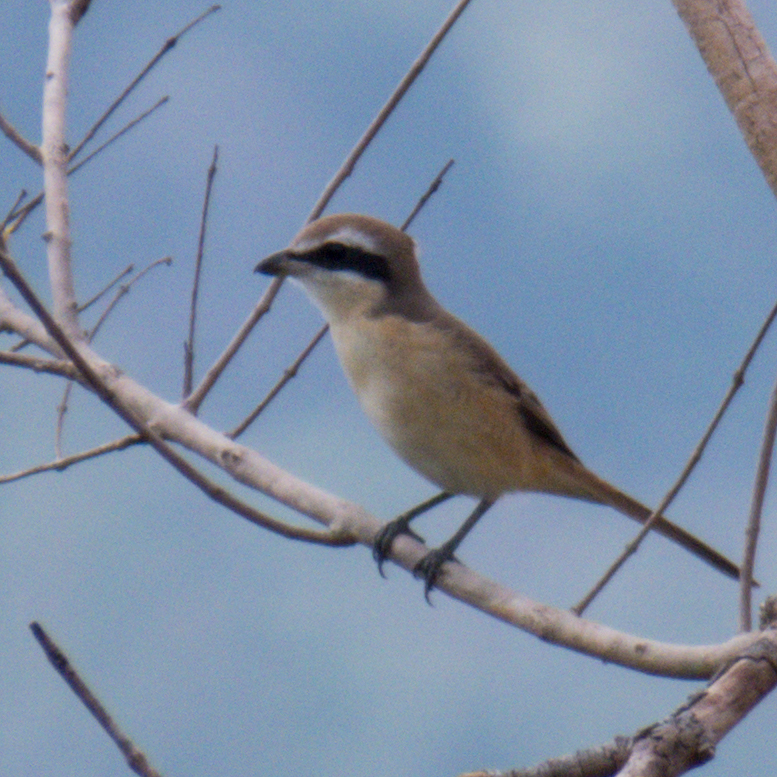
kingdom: Animalia
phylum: Chordata
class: Aves
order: Passeriformes
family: Laniidae
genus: Lanius
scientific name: Lanius cristatus
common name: Brown shrike
